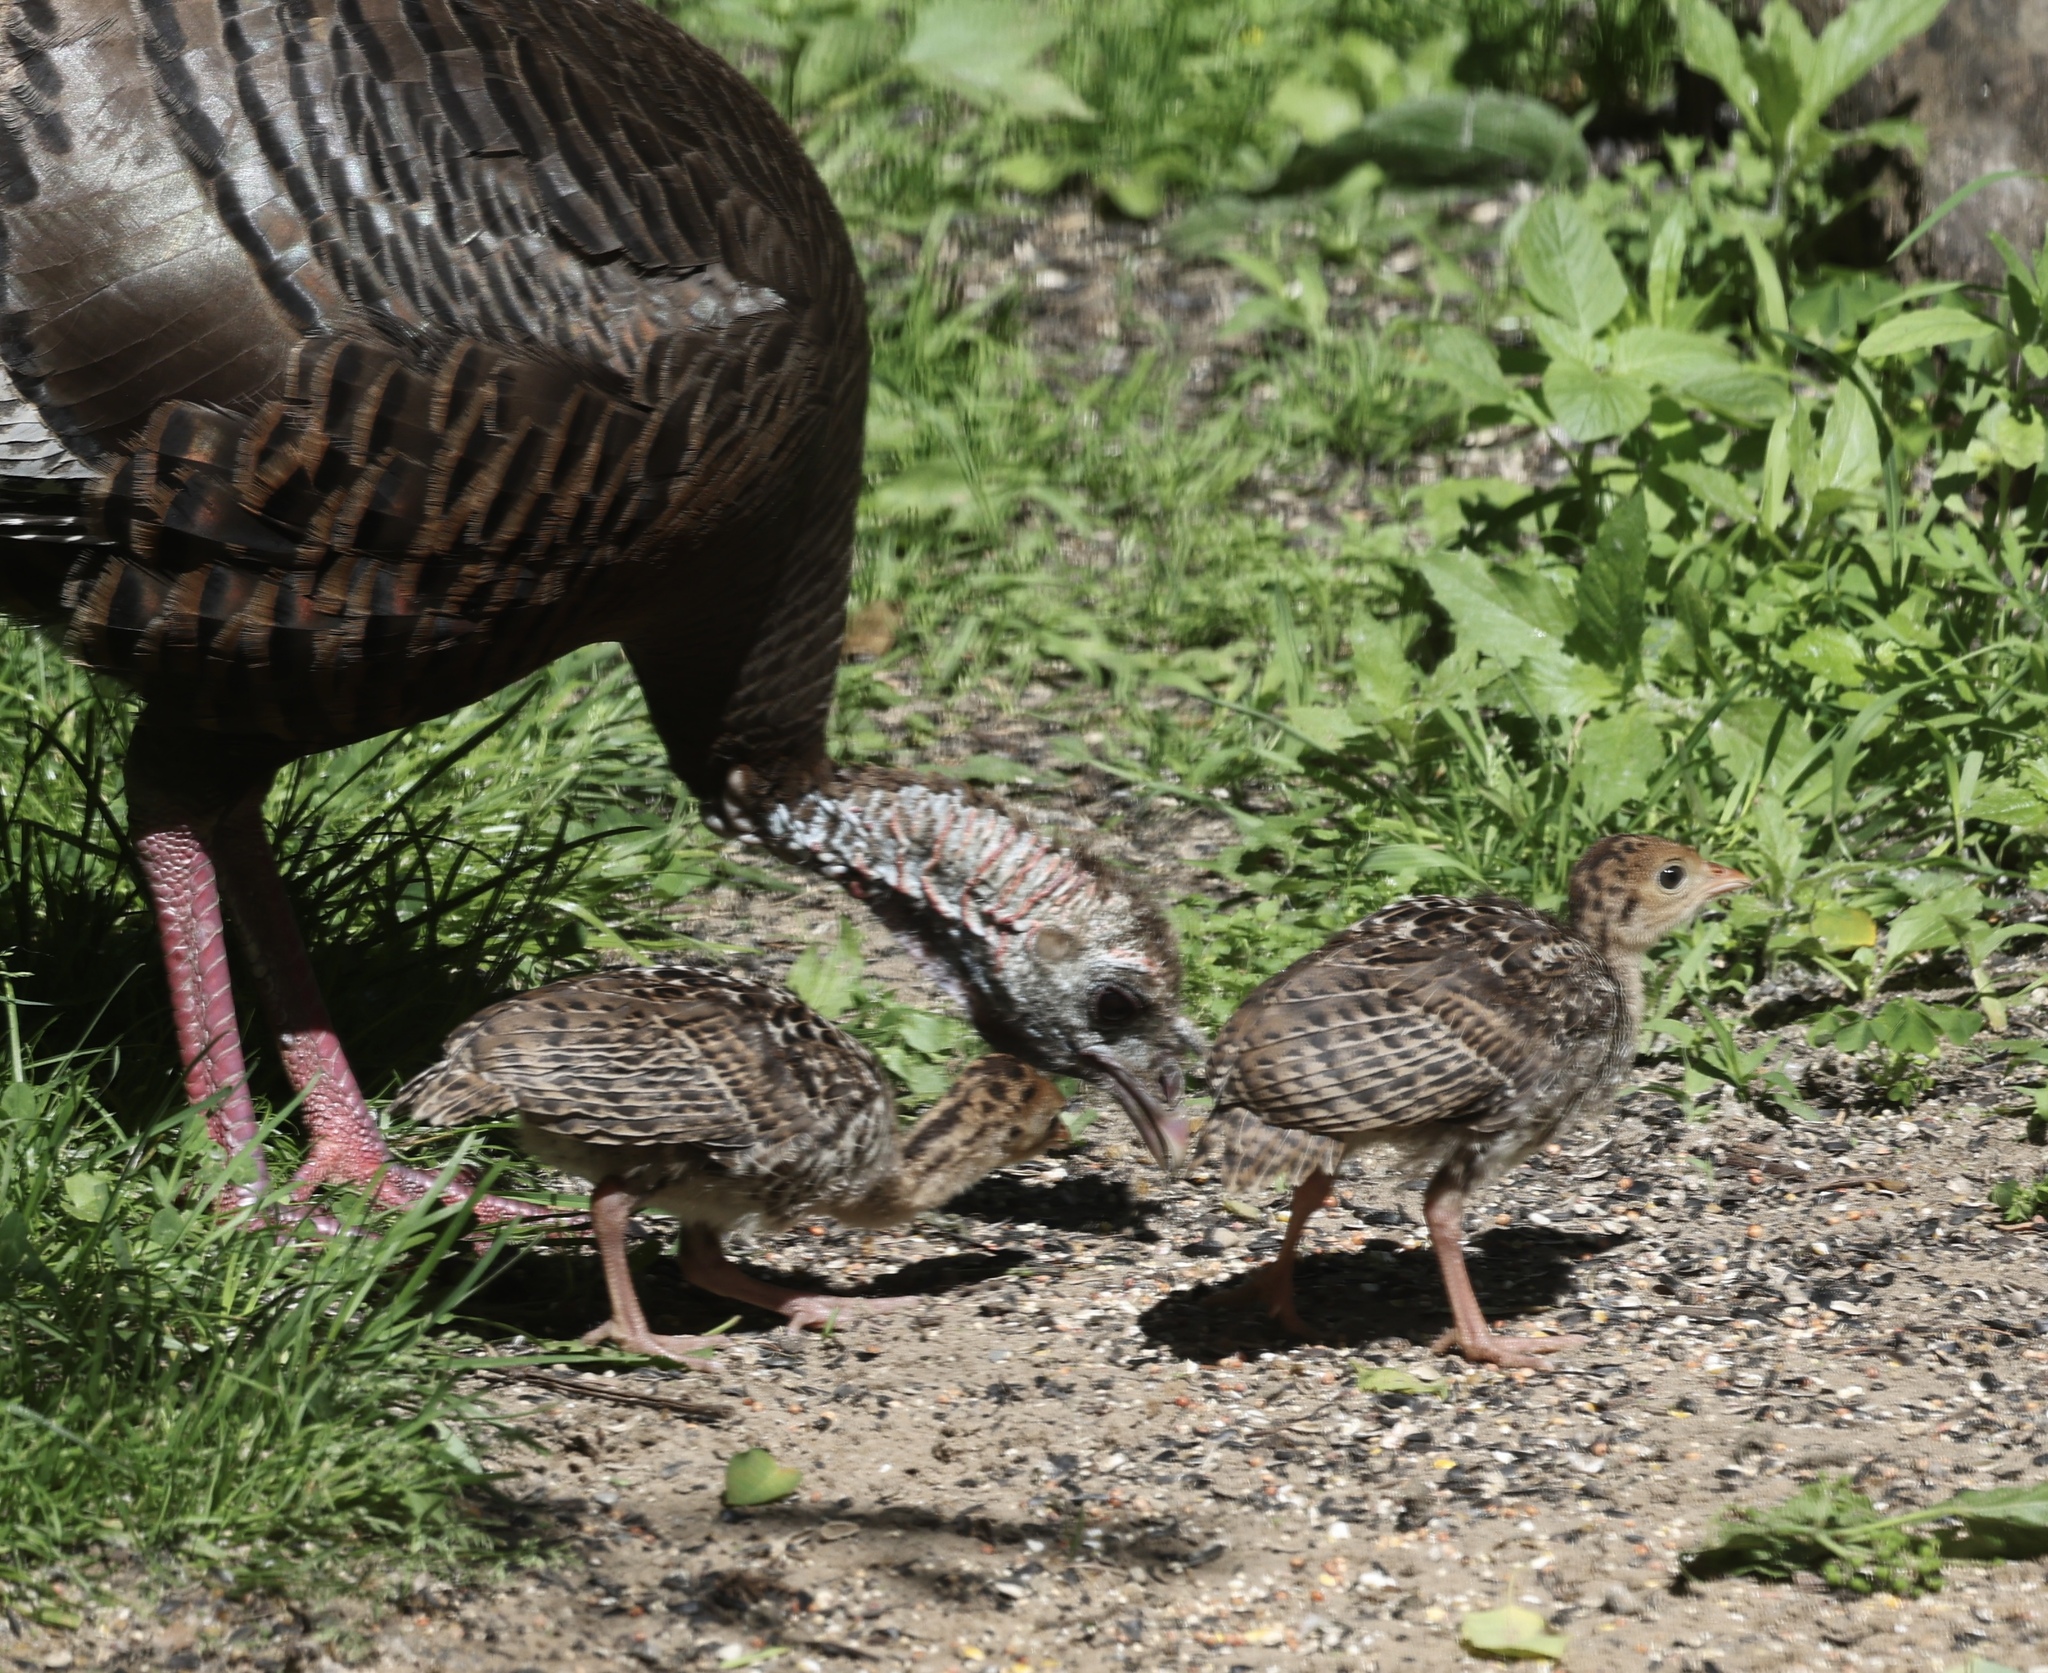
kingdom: Animalia
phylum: Chordata
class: Aves
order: Galliformes
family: Phasianidae
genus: Meleagris
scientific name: Meleagris gallopavo
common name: Wild turkey
